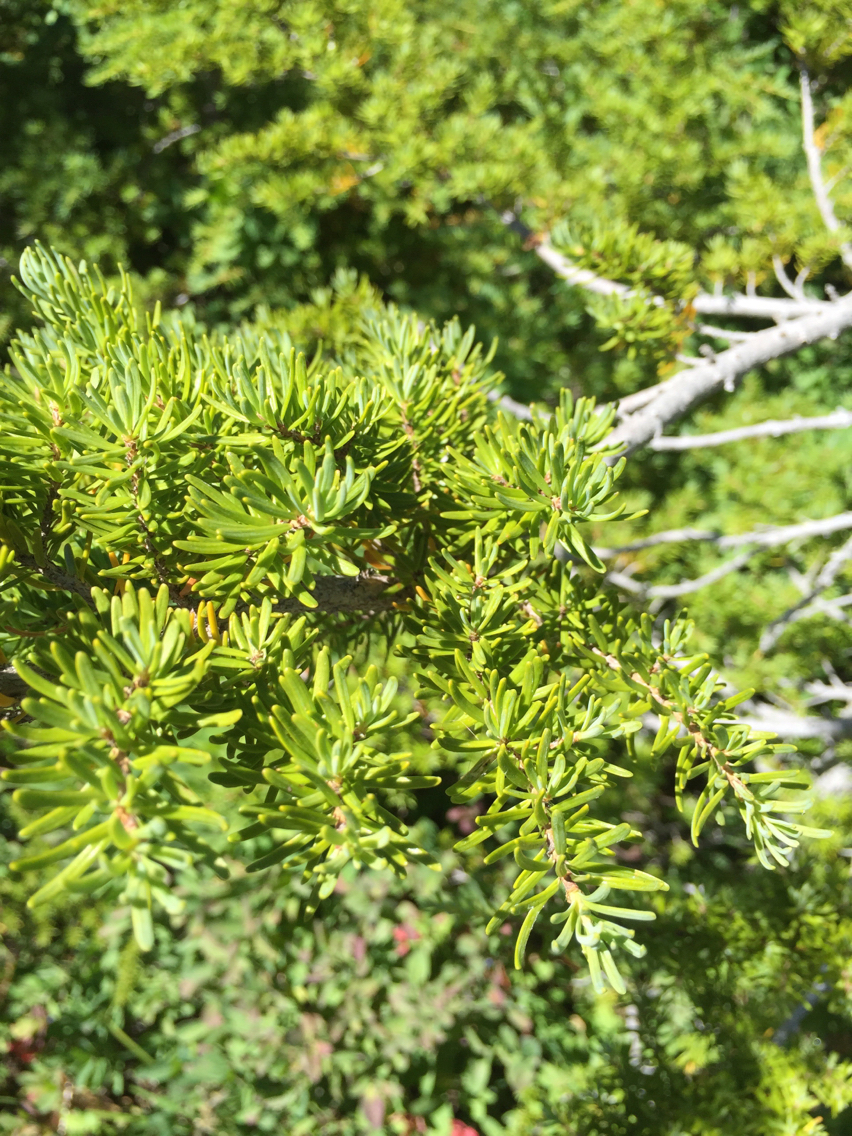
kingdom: Plantae
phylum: Tracheophyta
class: Pinopsida
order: Pinales
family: Pinaceae
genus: Tsuga
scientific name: Tsuga mertensiana
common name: Mountain hemlock
